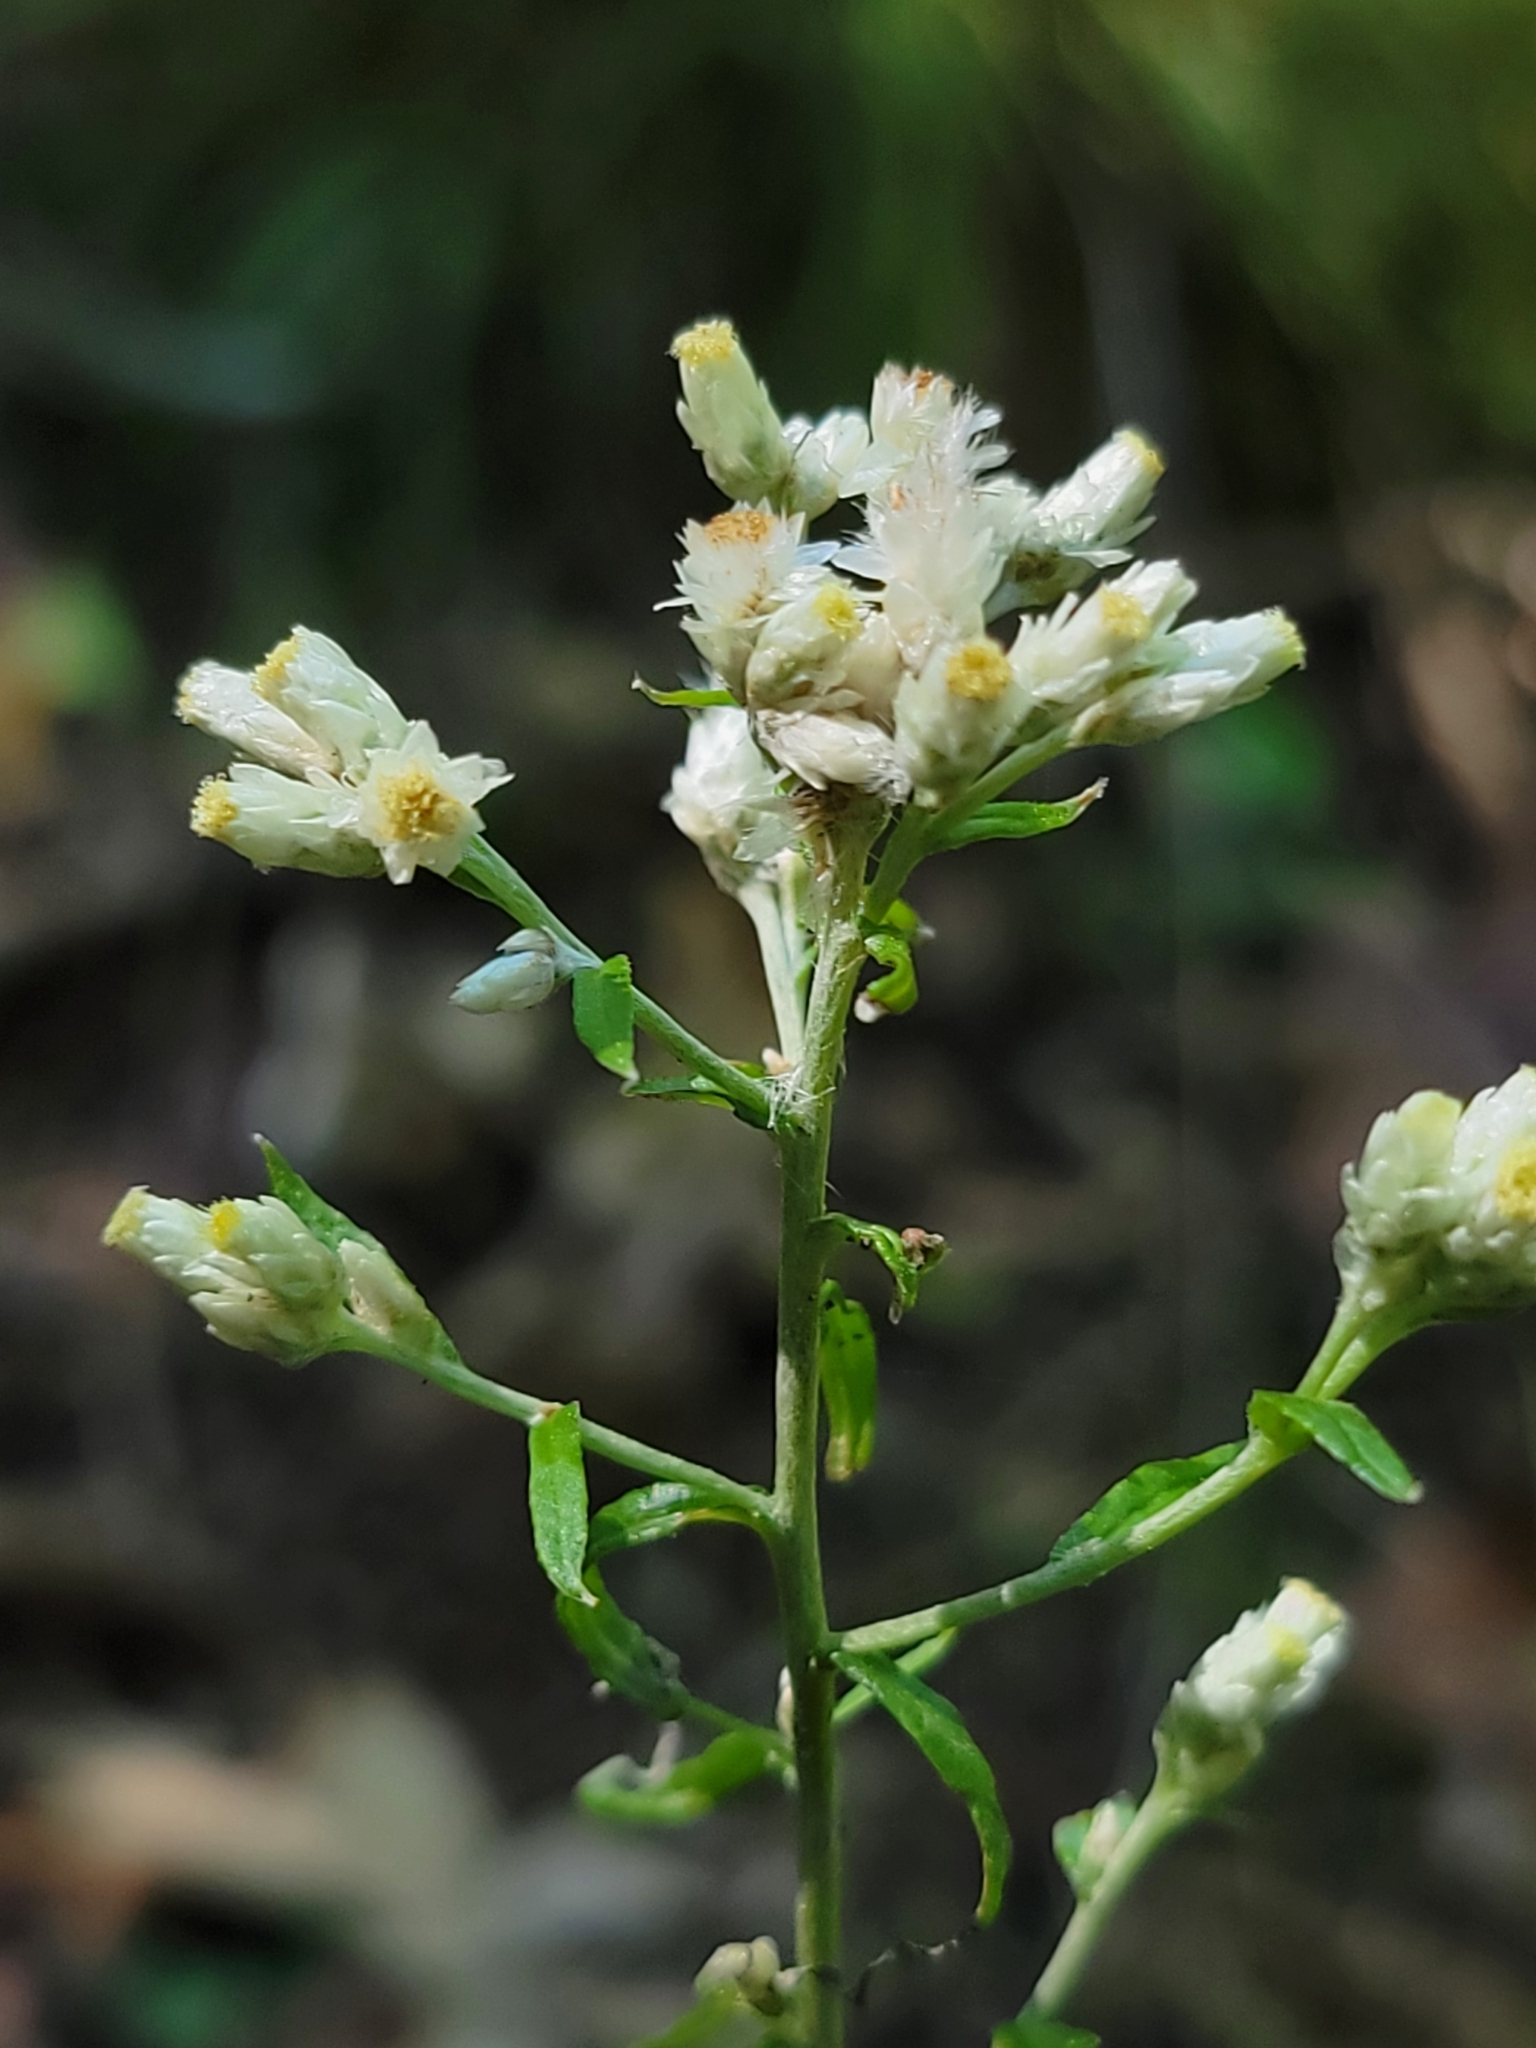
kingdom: Plantae
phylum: Tracheophyta
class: Magnoliopsida
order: Asterales
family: Asteraceae
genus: Pseudognaphalium
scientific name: Pseudognaphalium obtusifolium
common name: Eastern rabbit-tobacco
